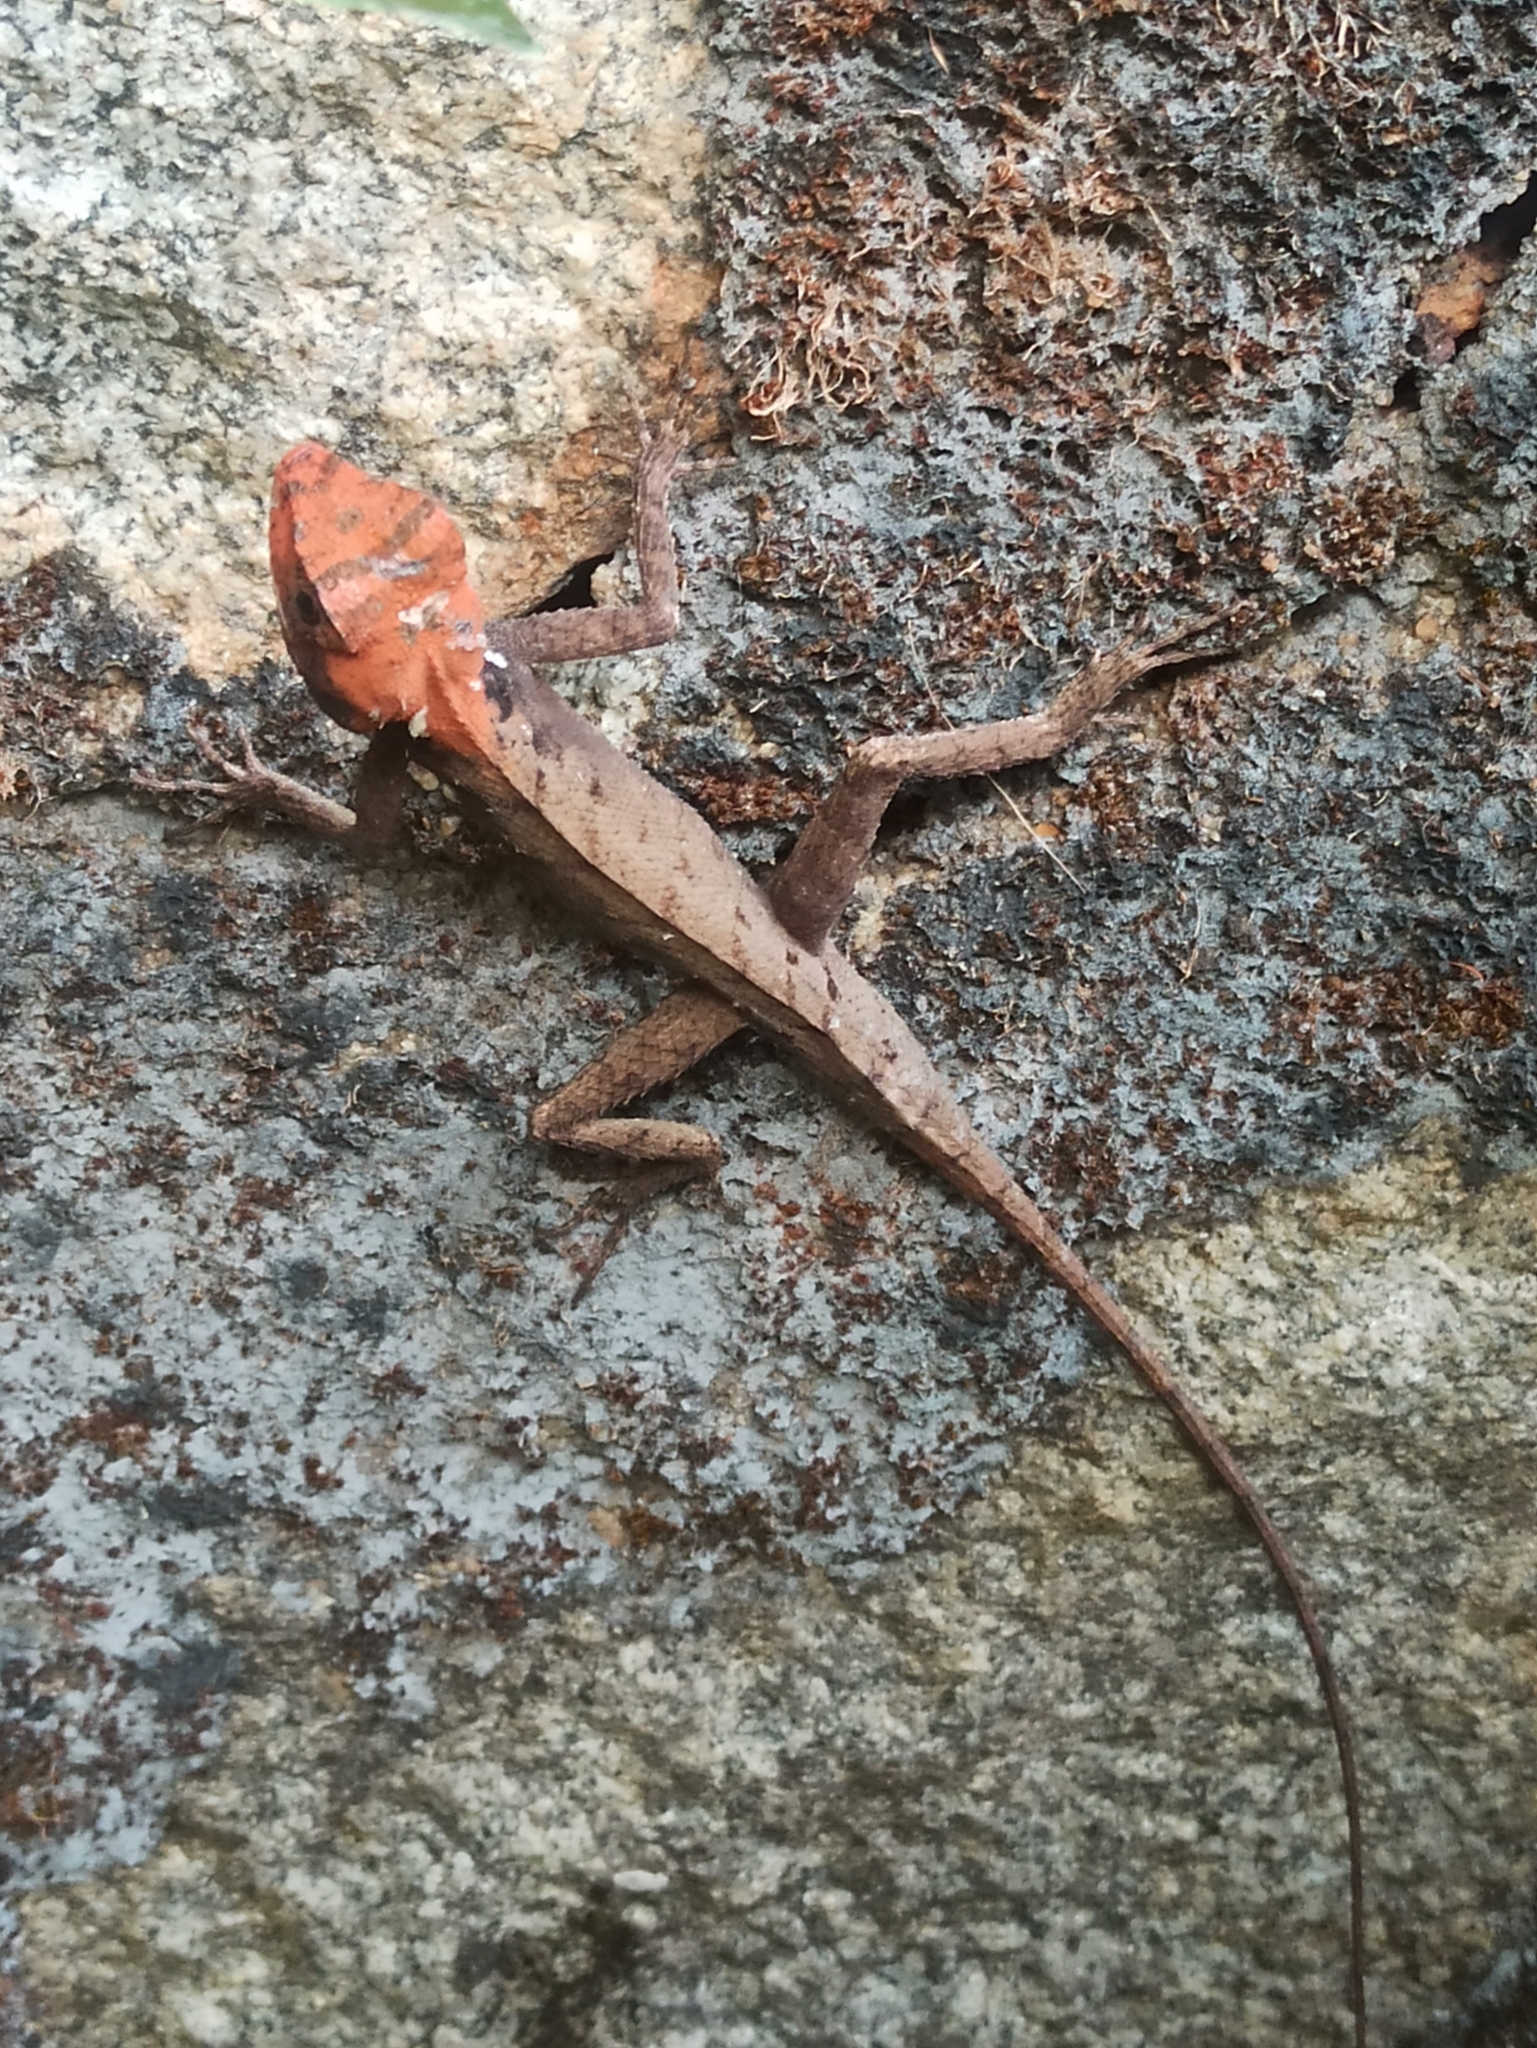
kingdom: Animalia
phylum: Chordata
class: Squamata
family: Agamidae
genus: Monilesaurus
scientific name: Monilesaurus rouxii
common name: Roux's forest lizard
